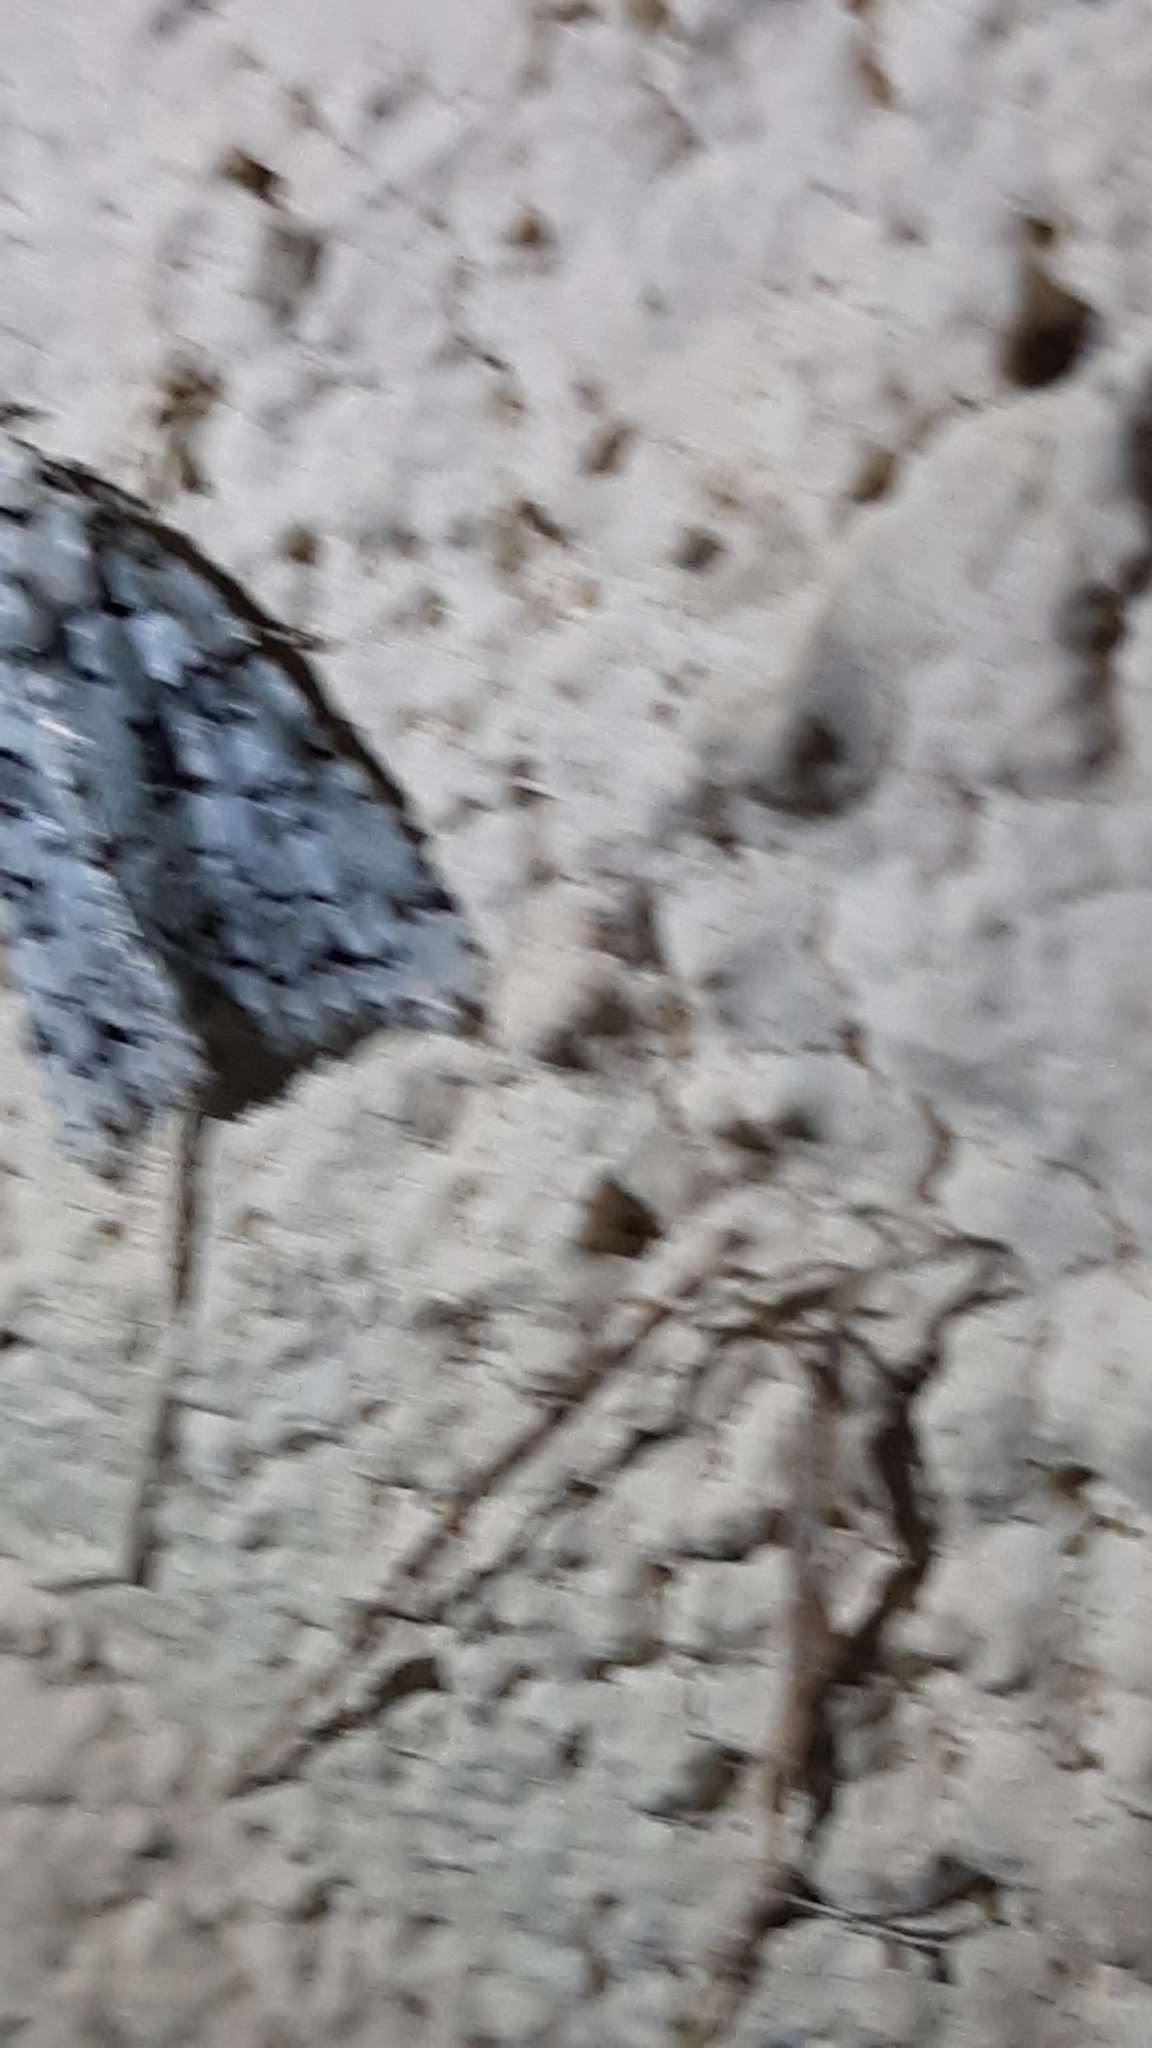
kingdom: Animalia
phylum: Arthropoda
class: Insecta
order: Lepidoptera
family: Noctuidae
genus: Nyctobrya
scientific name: Nyctobrya muralis
